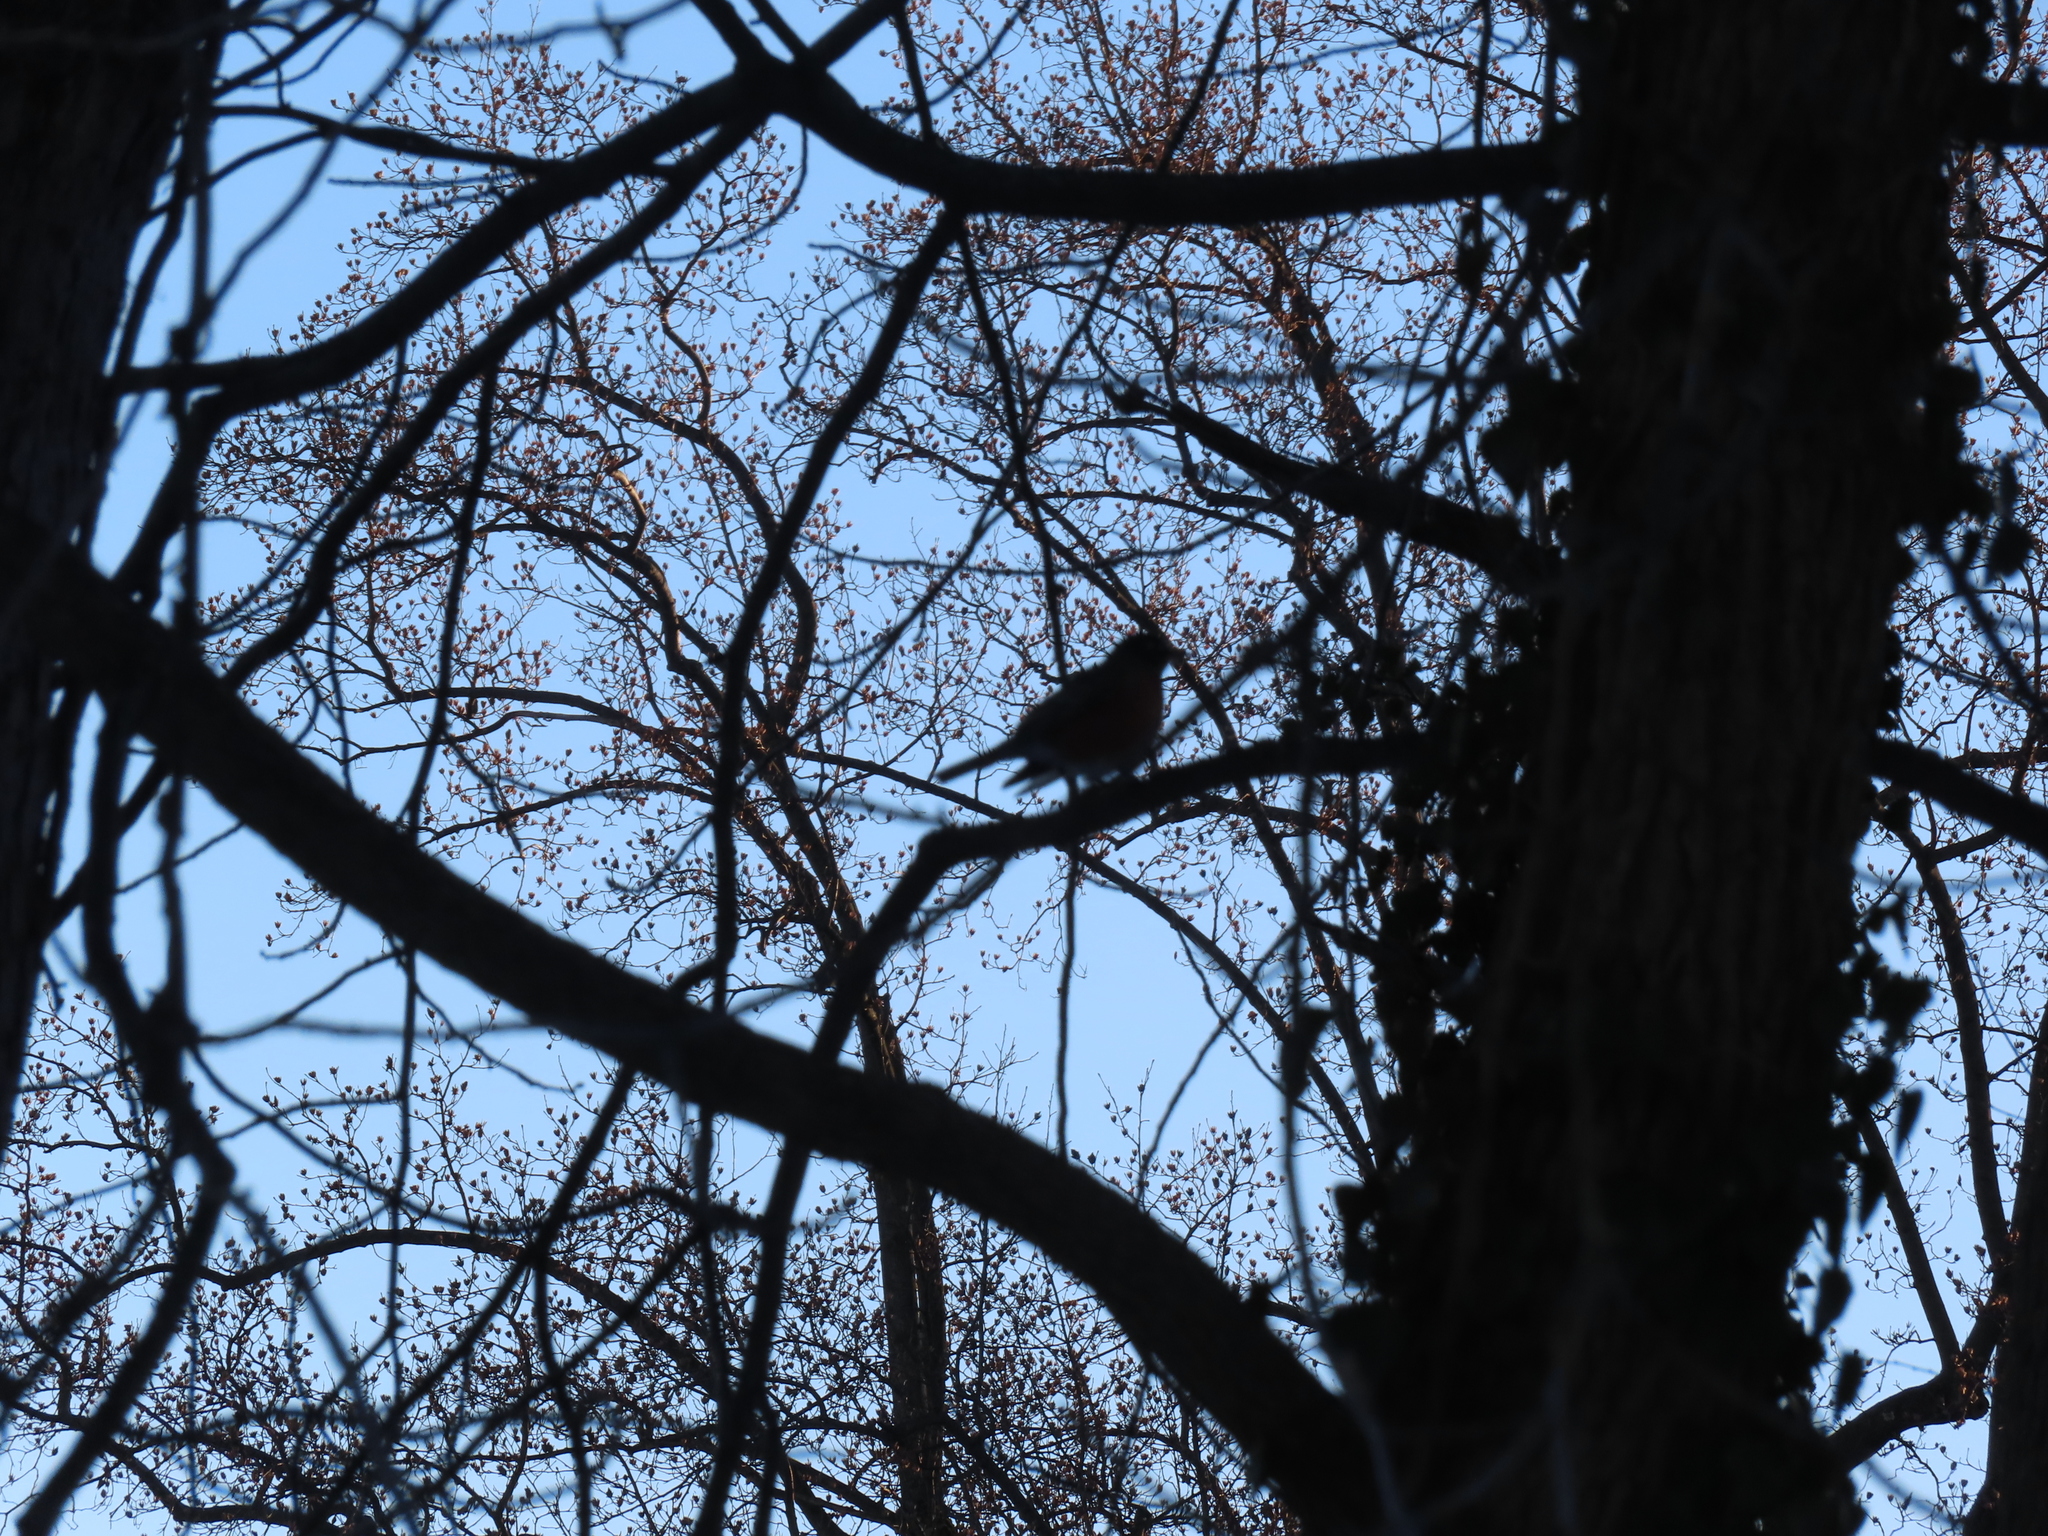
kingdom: Animalia
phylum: Chordata
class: Aves
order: Passeriformes
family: Turdidae
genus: Turdus
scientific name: Turdus migratorius
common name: American robin
